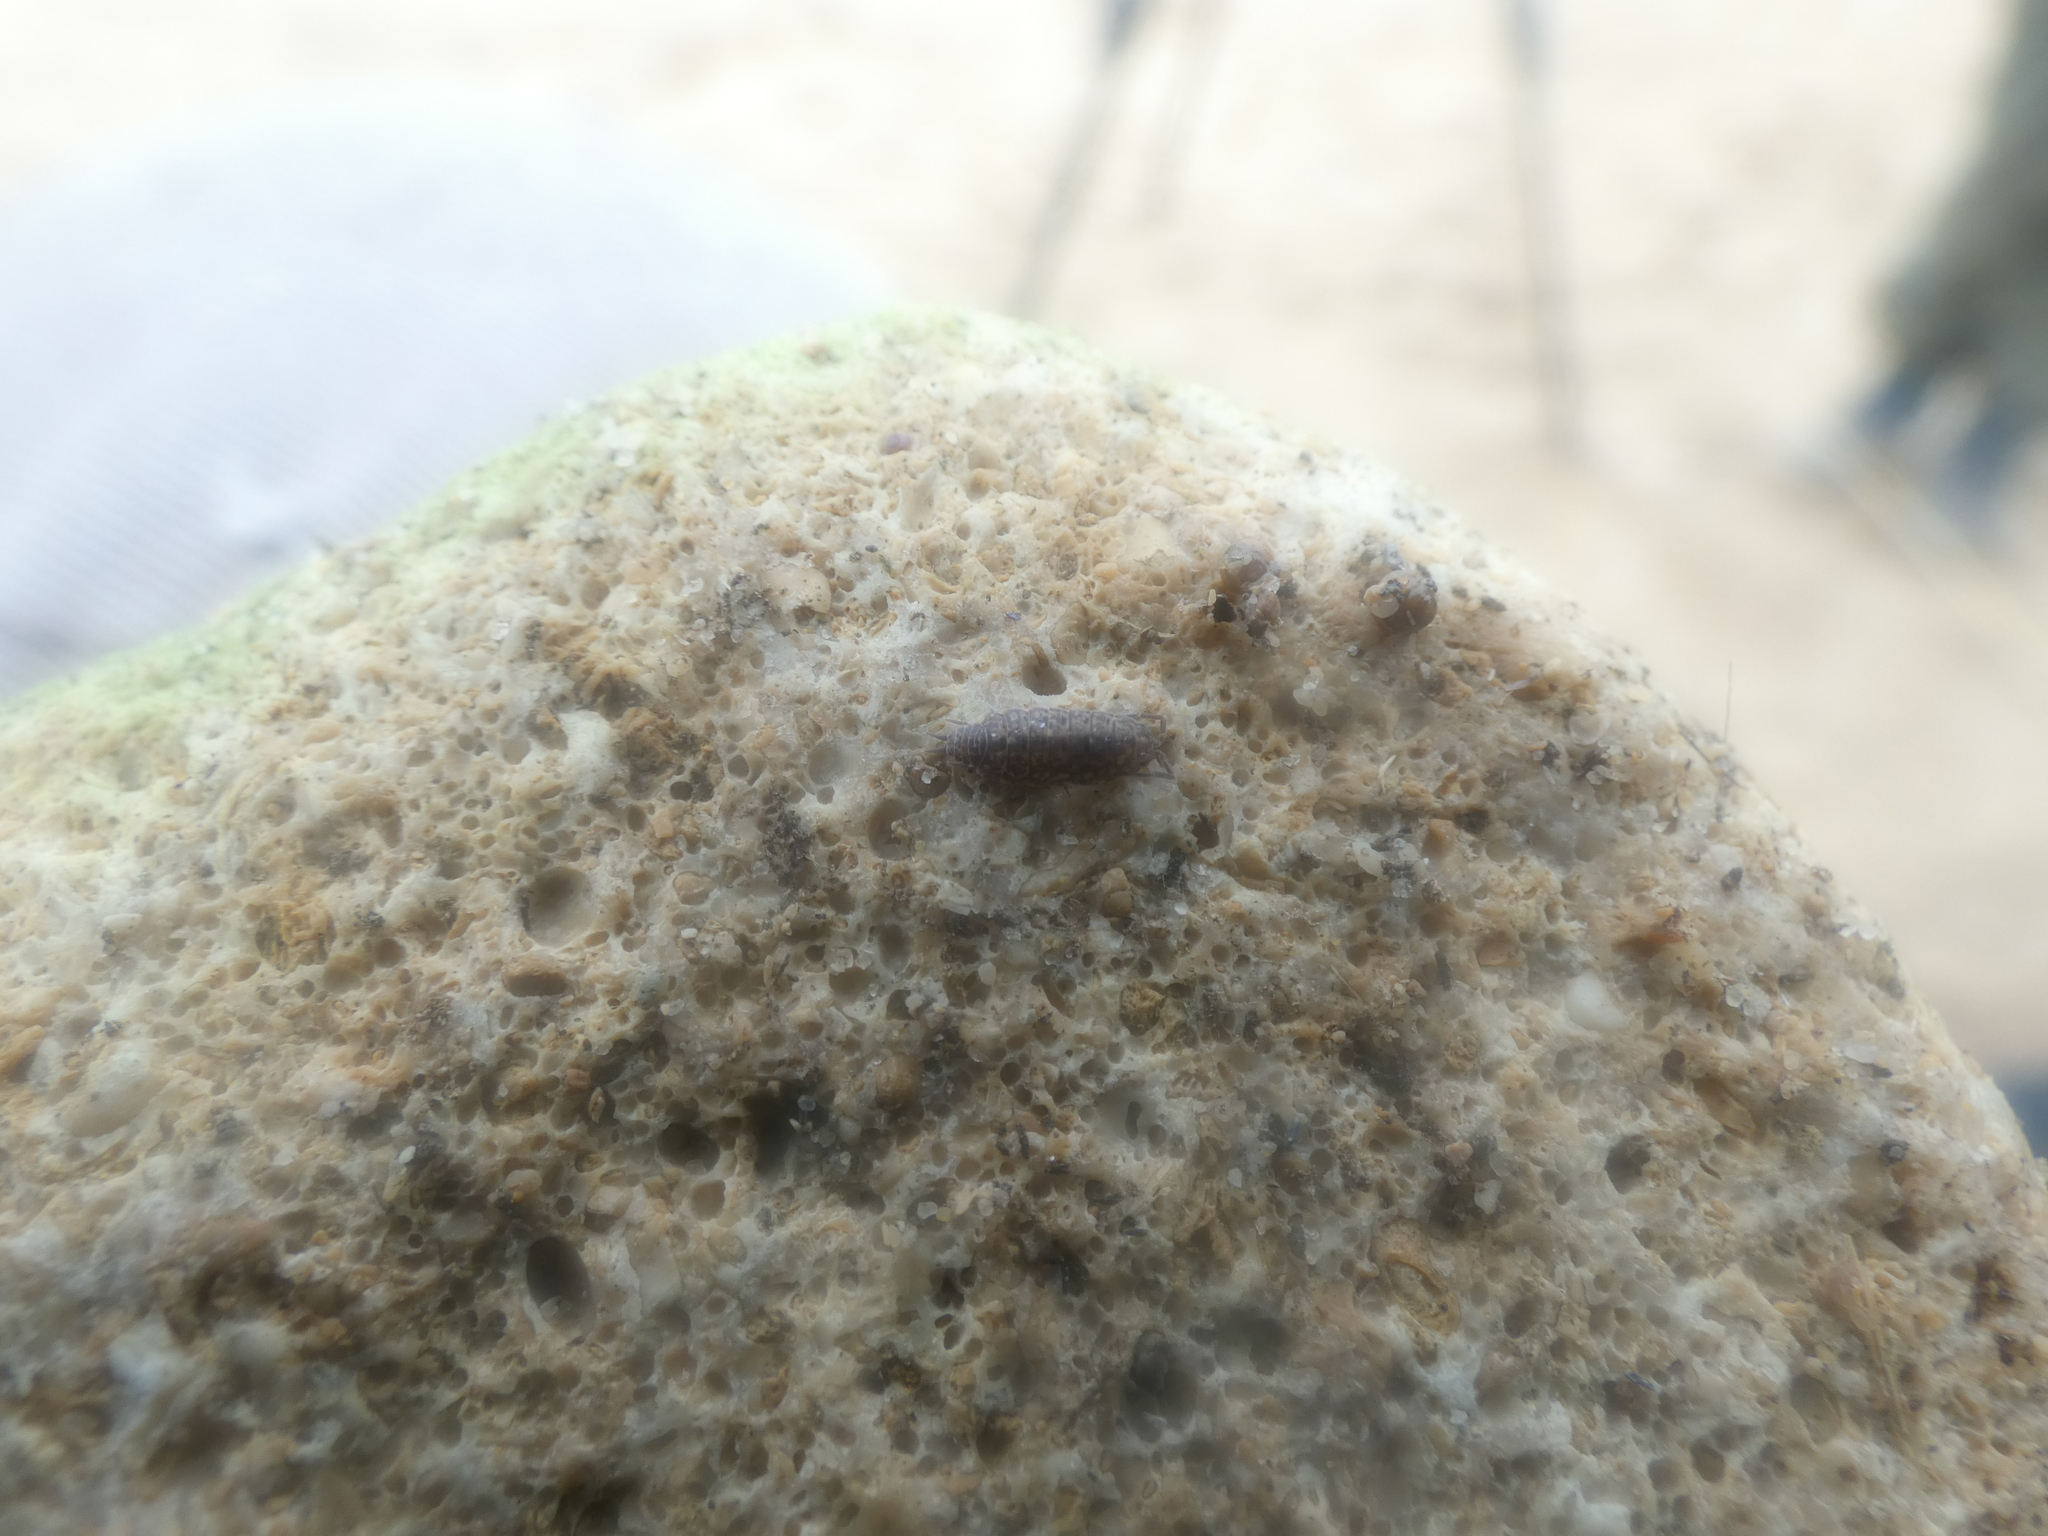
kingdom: Animalia
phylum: Arthropoda
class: Malacostraca
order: Isopoda
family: Porcellionidae
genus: Porcellionides
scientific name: Porcellionides cingendus
